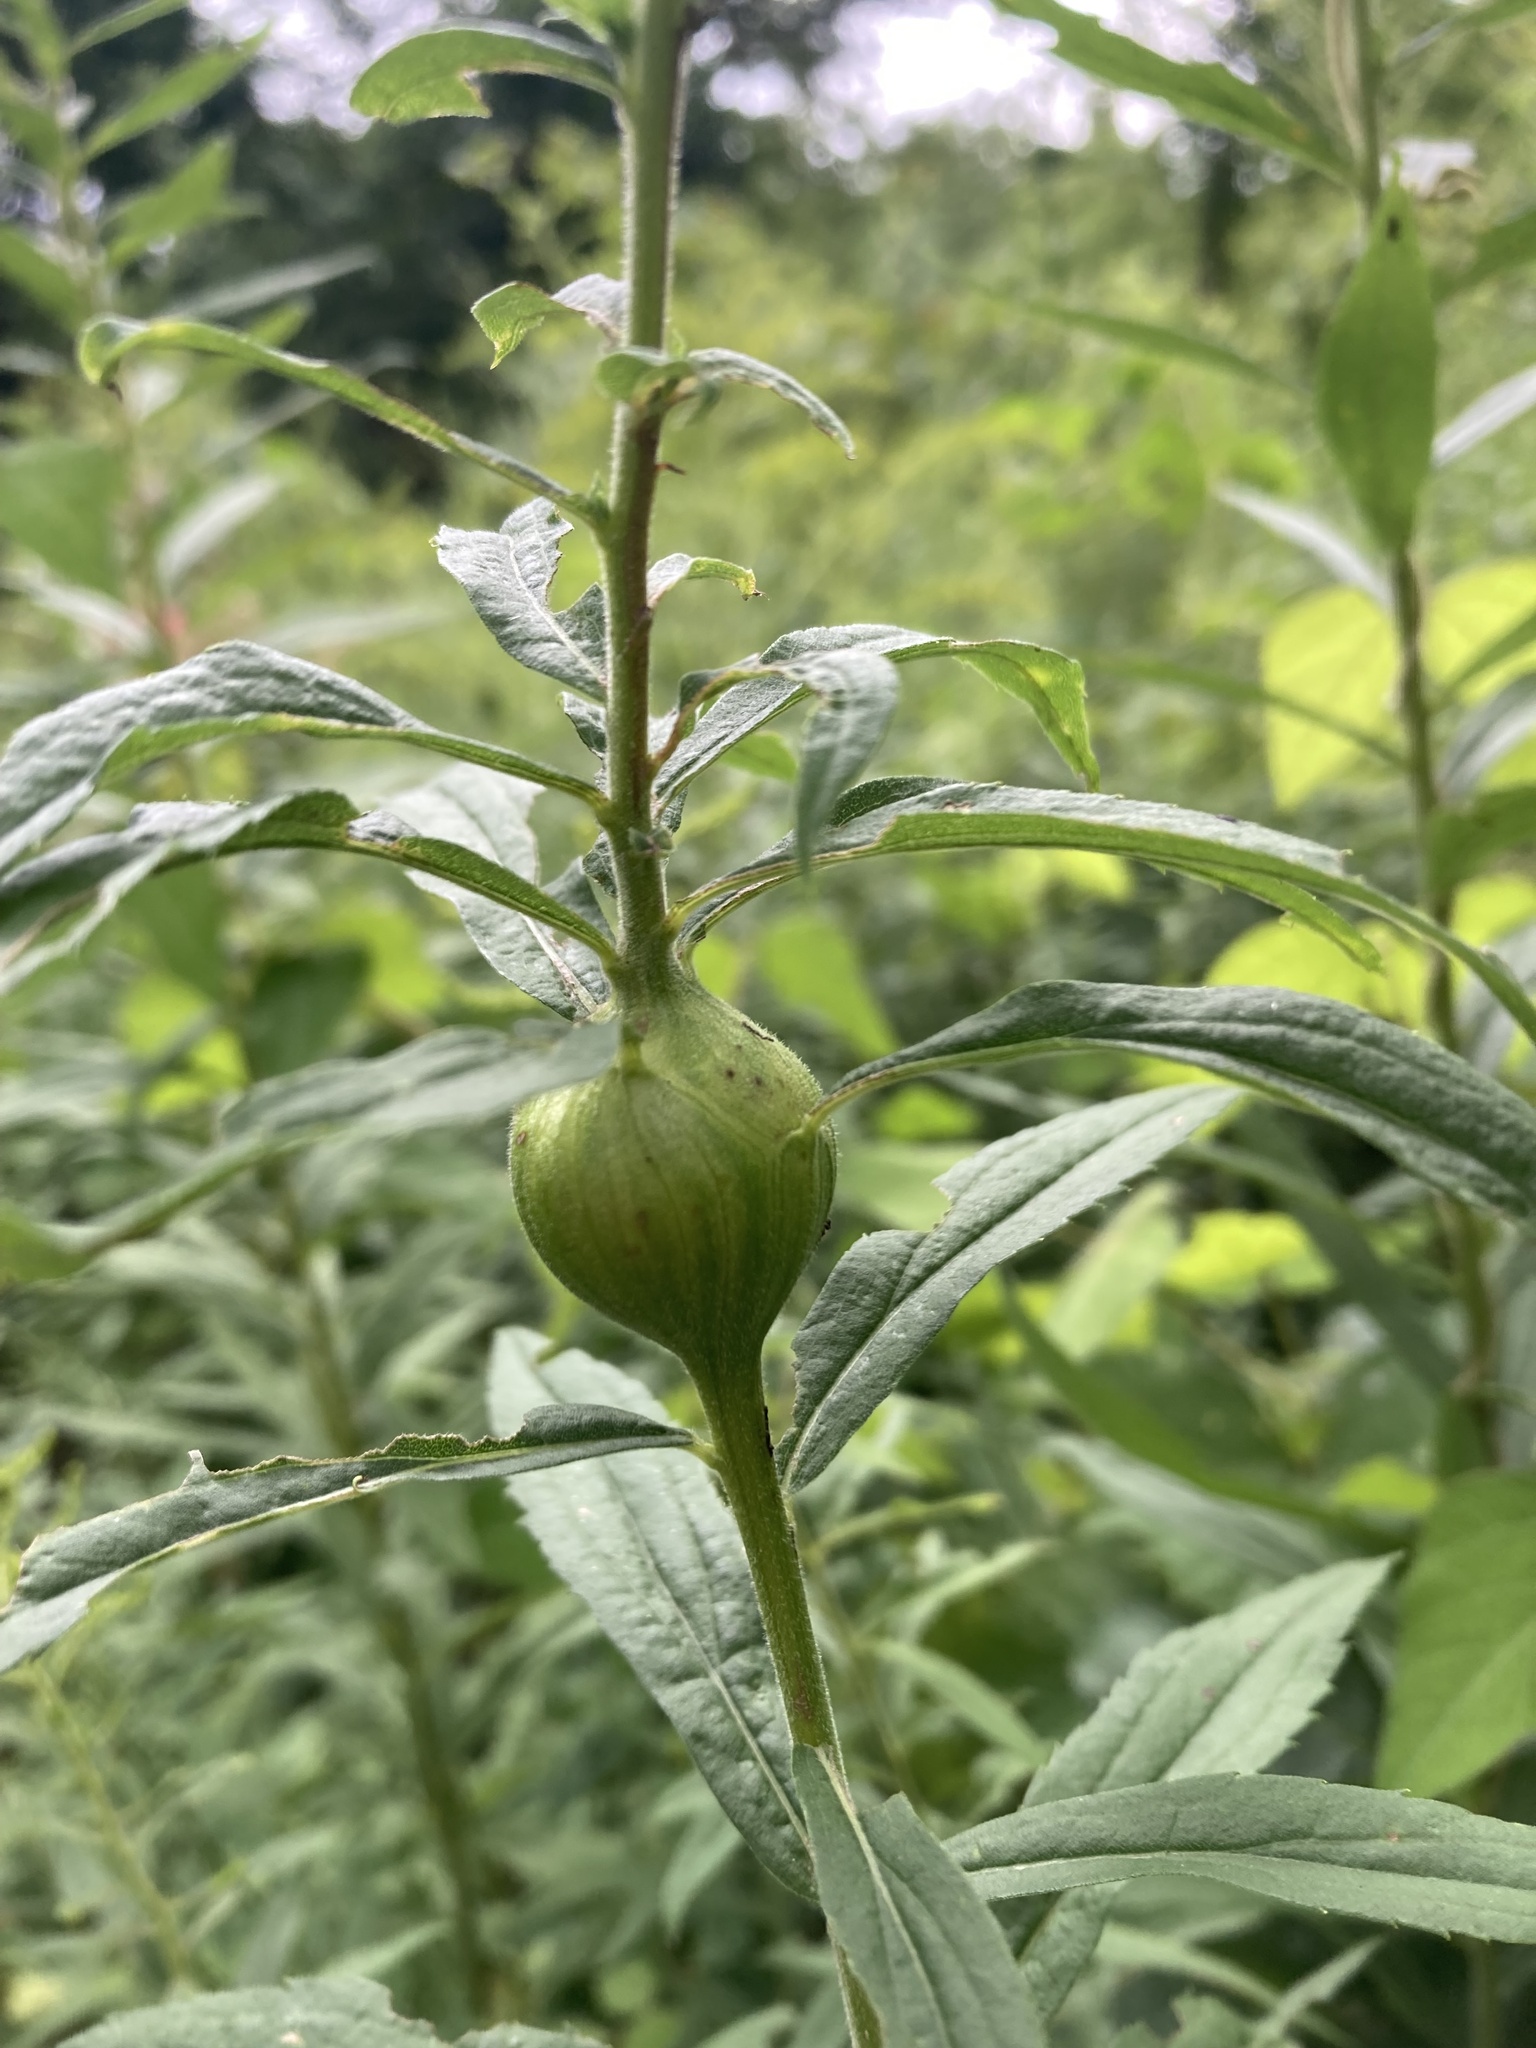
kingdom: Animalia
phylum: Arthropoda
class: Insecta
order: Diptera
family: Tephritidae
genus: Eurosta
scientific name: Eurosta solidaginis
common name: Goldenrod gall fly
